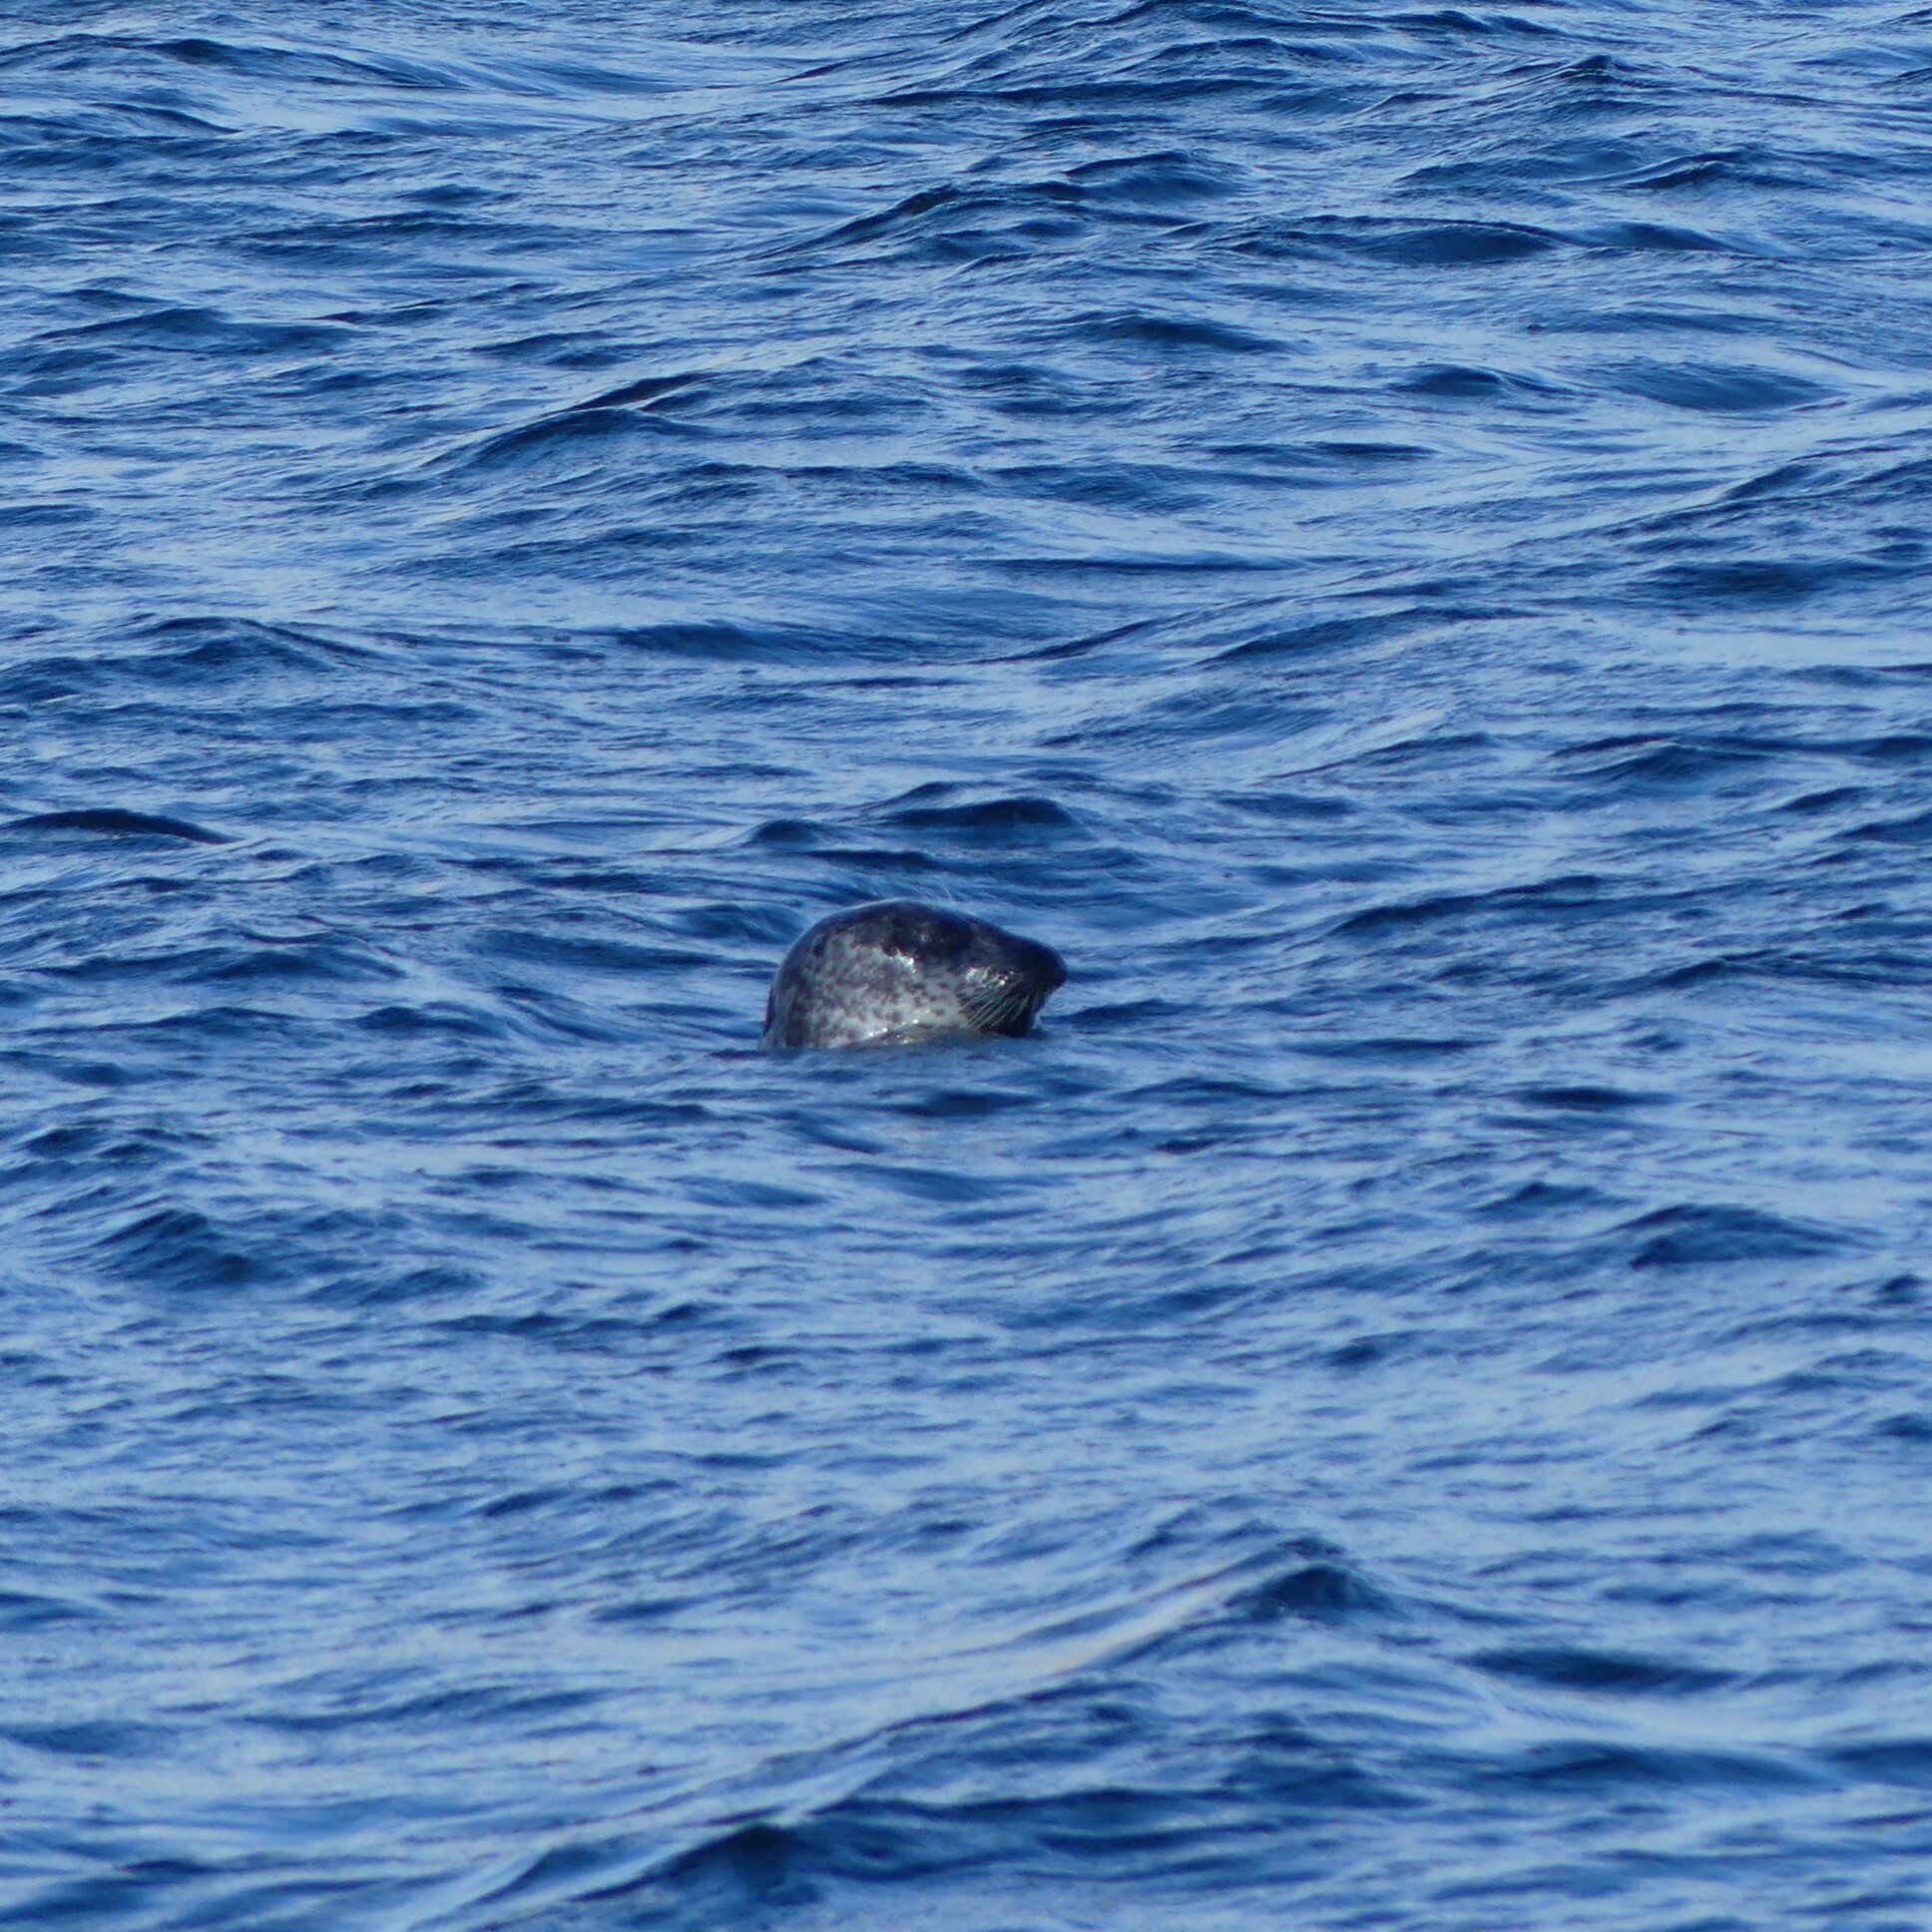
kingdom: Animalia
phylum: Chordata
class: Mammalia
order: Carnivora
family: Phocidae
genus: Phoca
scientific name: Phoca vitulina
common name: Harbor seal
